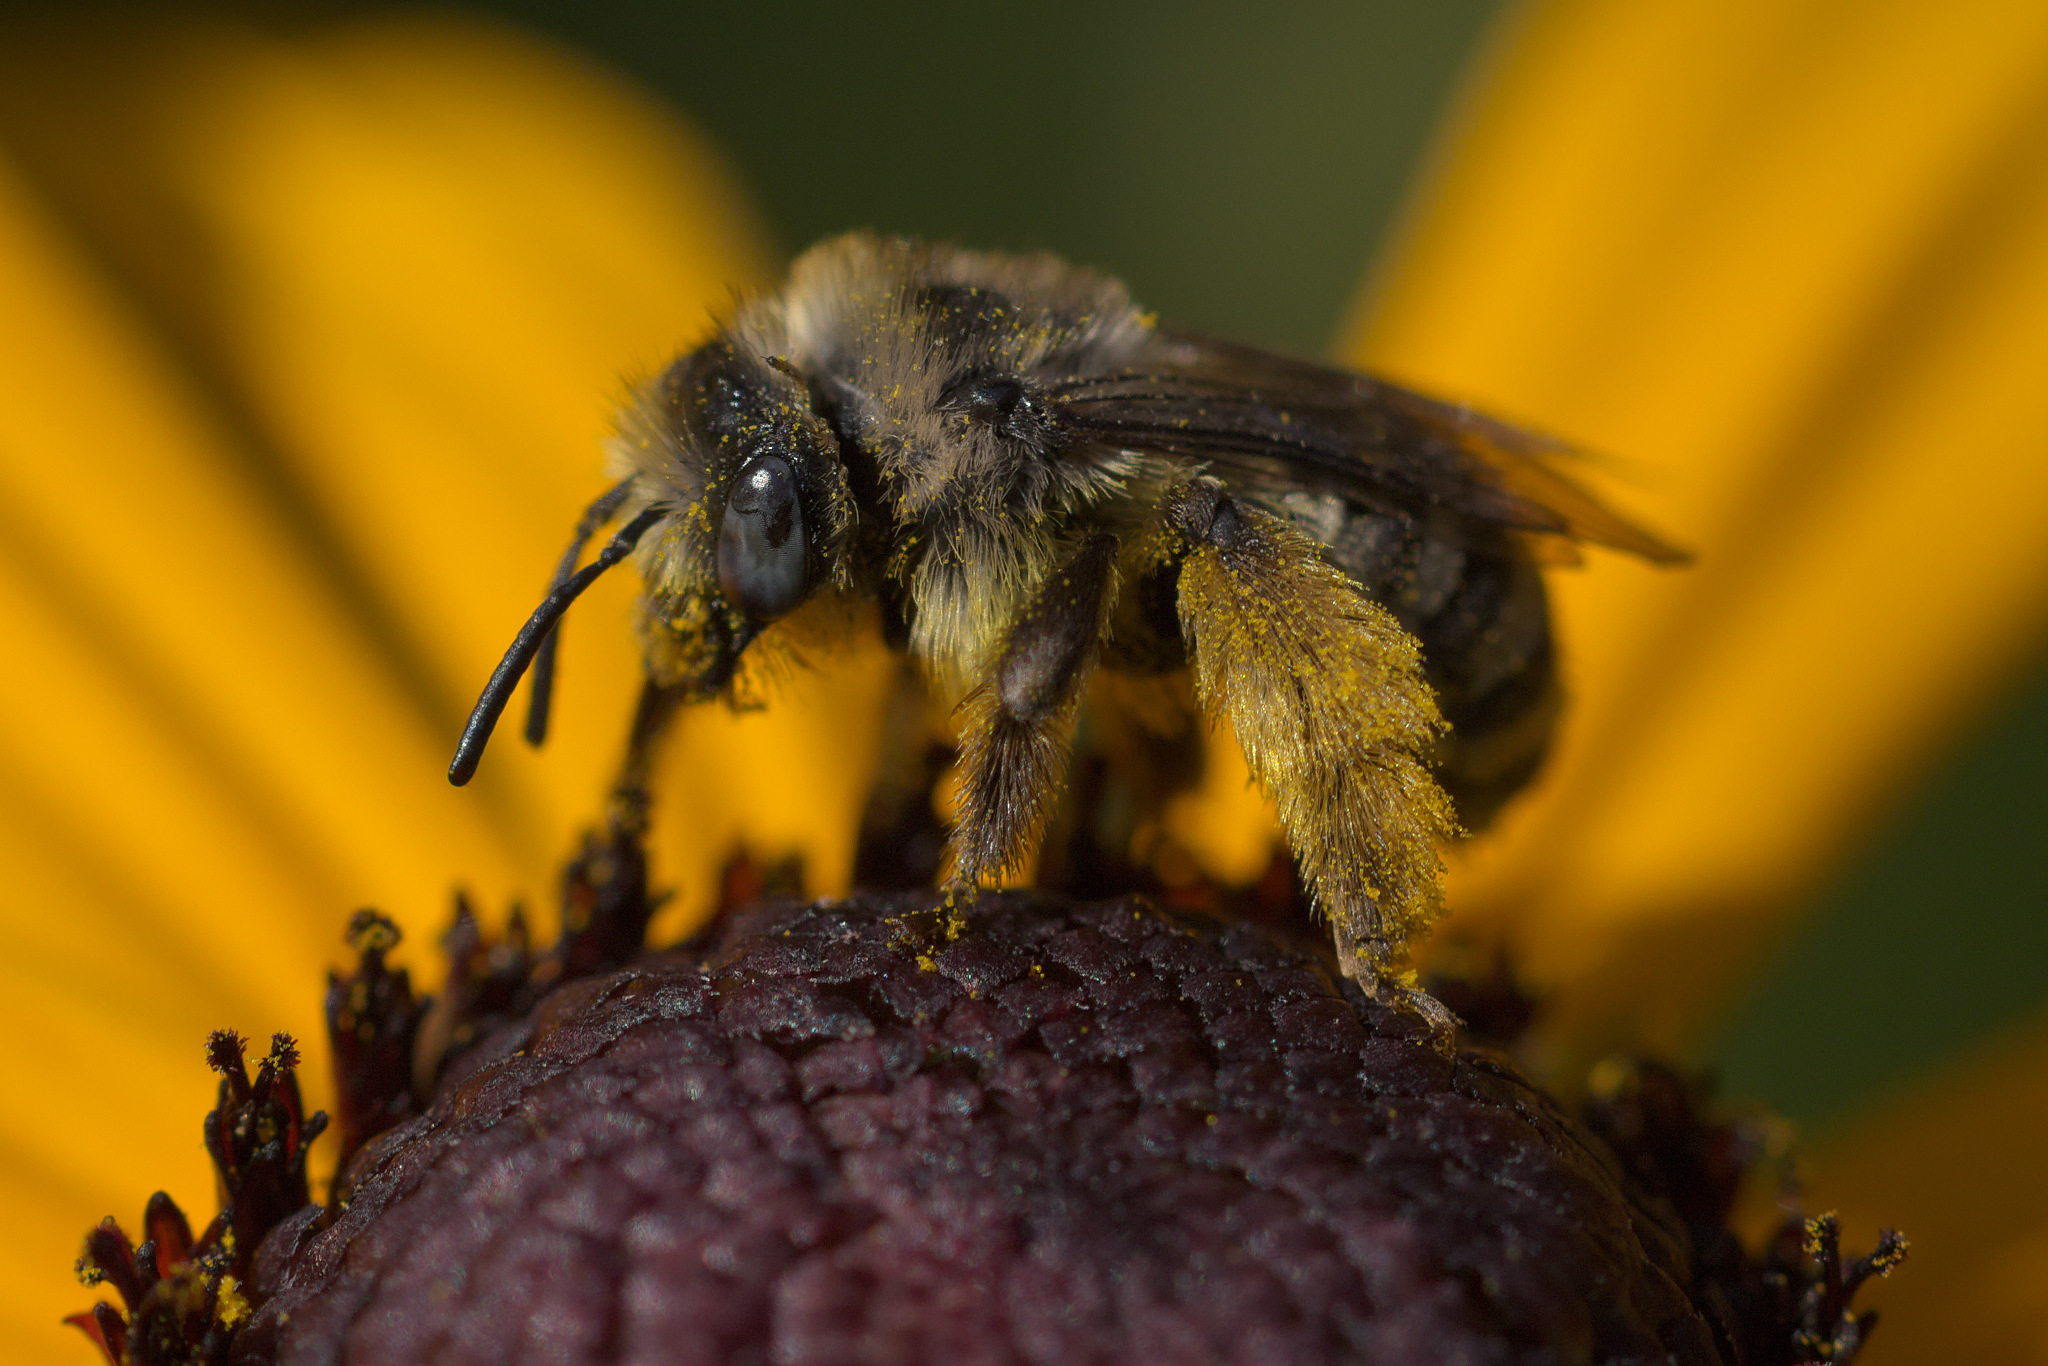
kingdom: Animalia
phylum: Arthropoda
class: Insecta
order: Hymenoptera
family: Apidae
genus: Melissodes
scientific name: Melissodes microstictus
